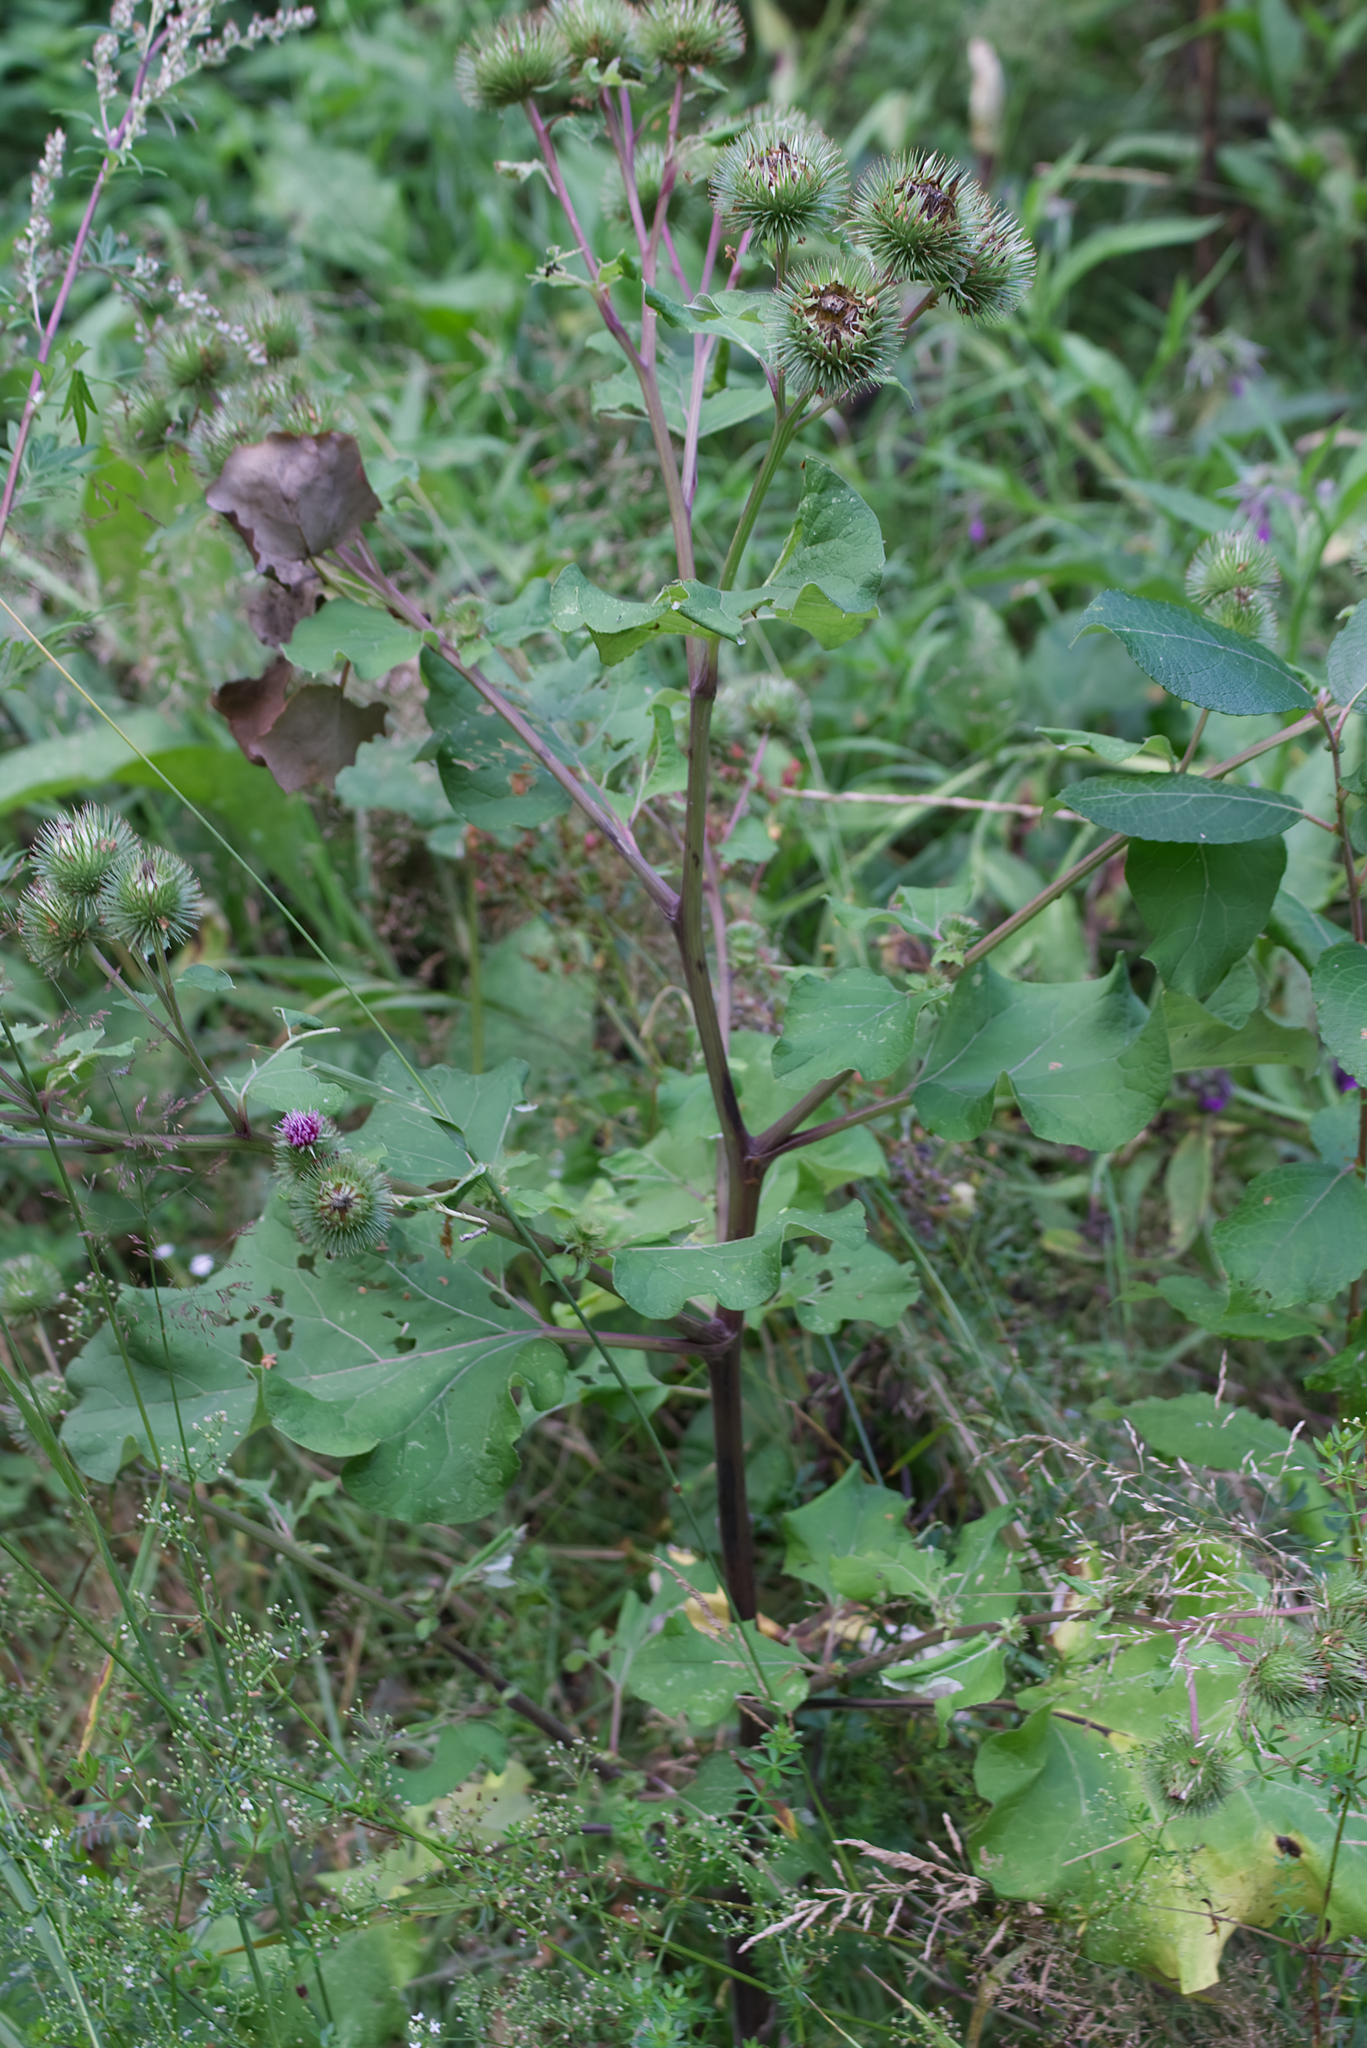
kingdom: Plantae
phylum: Tracheophyta
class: Magnoliopsida
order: Asterales
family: Asteraceae
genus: Arctium
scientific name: Arctium lappa
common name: Greater burdock
